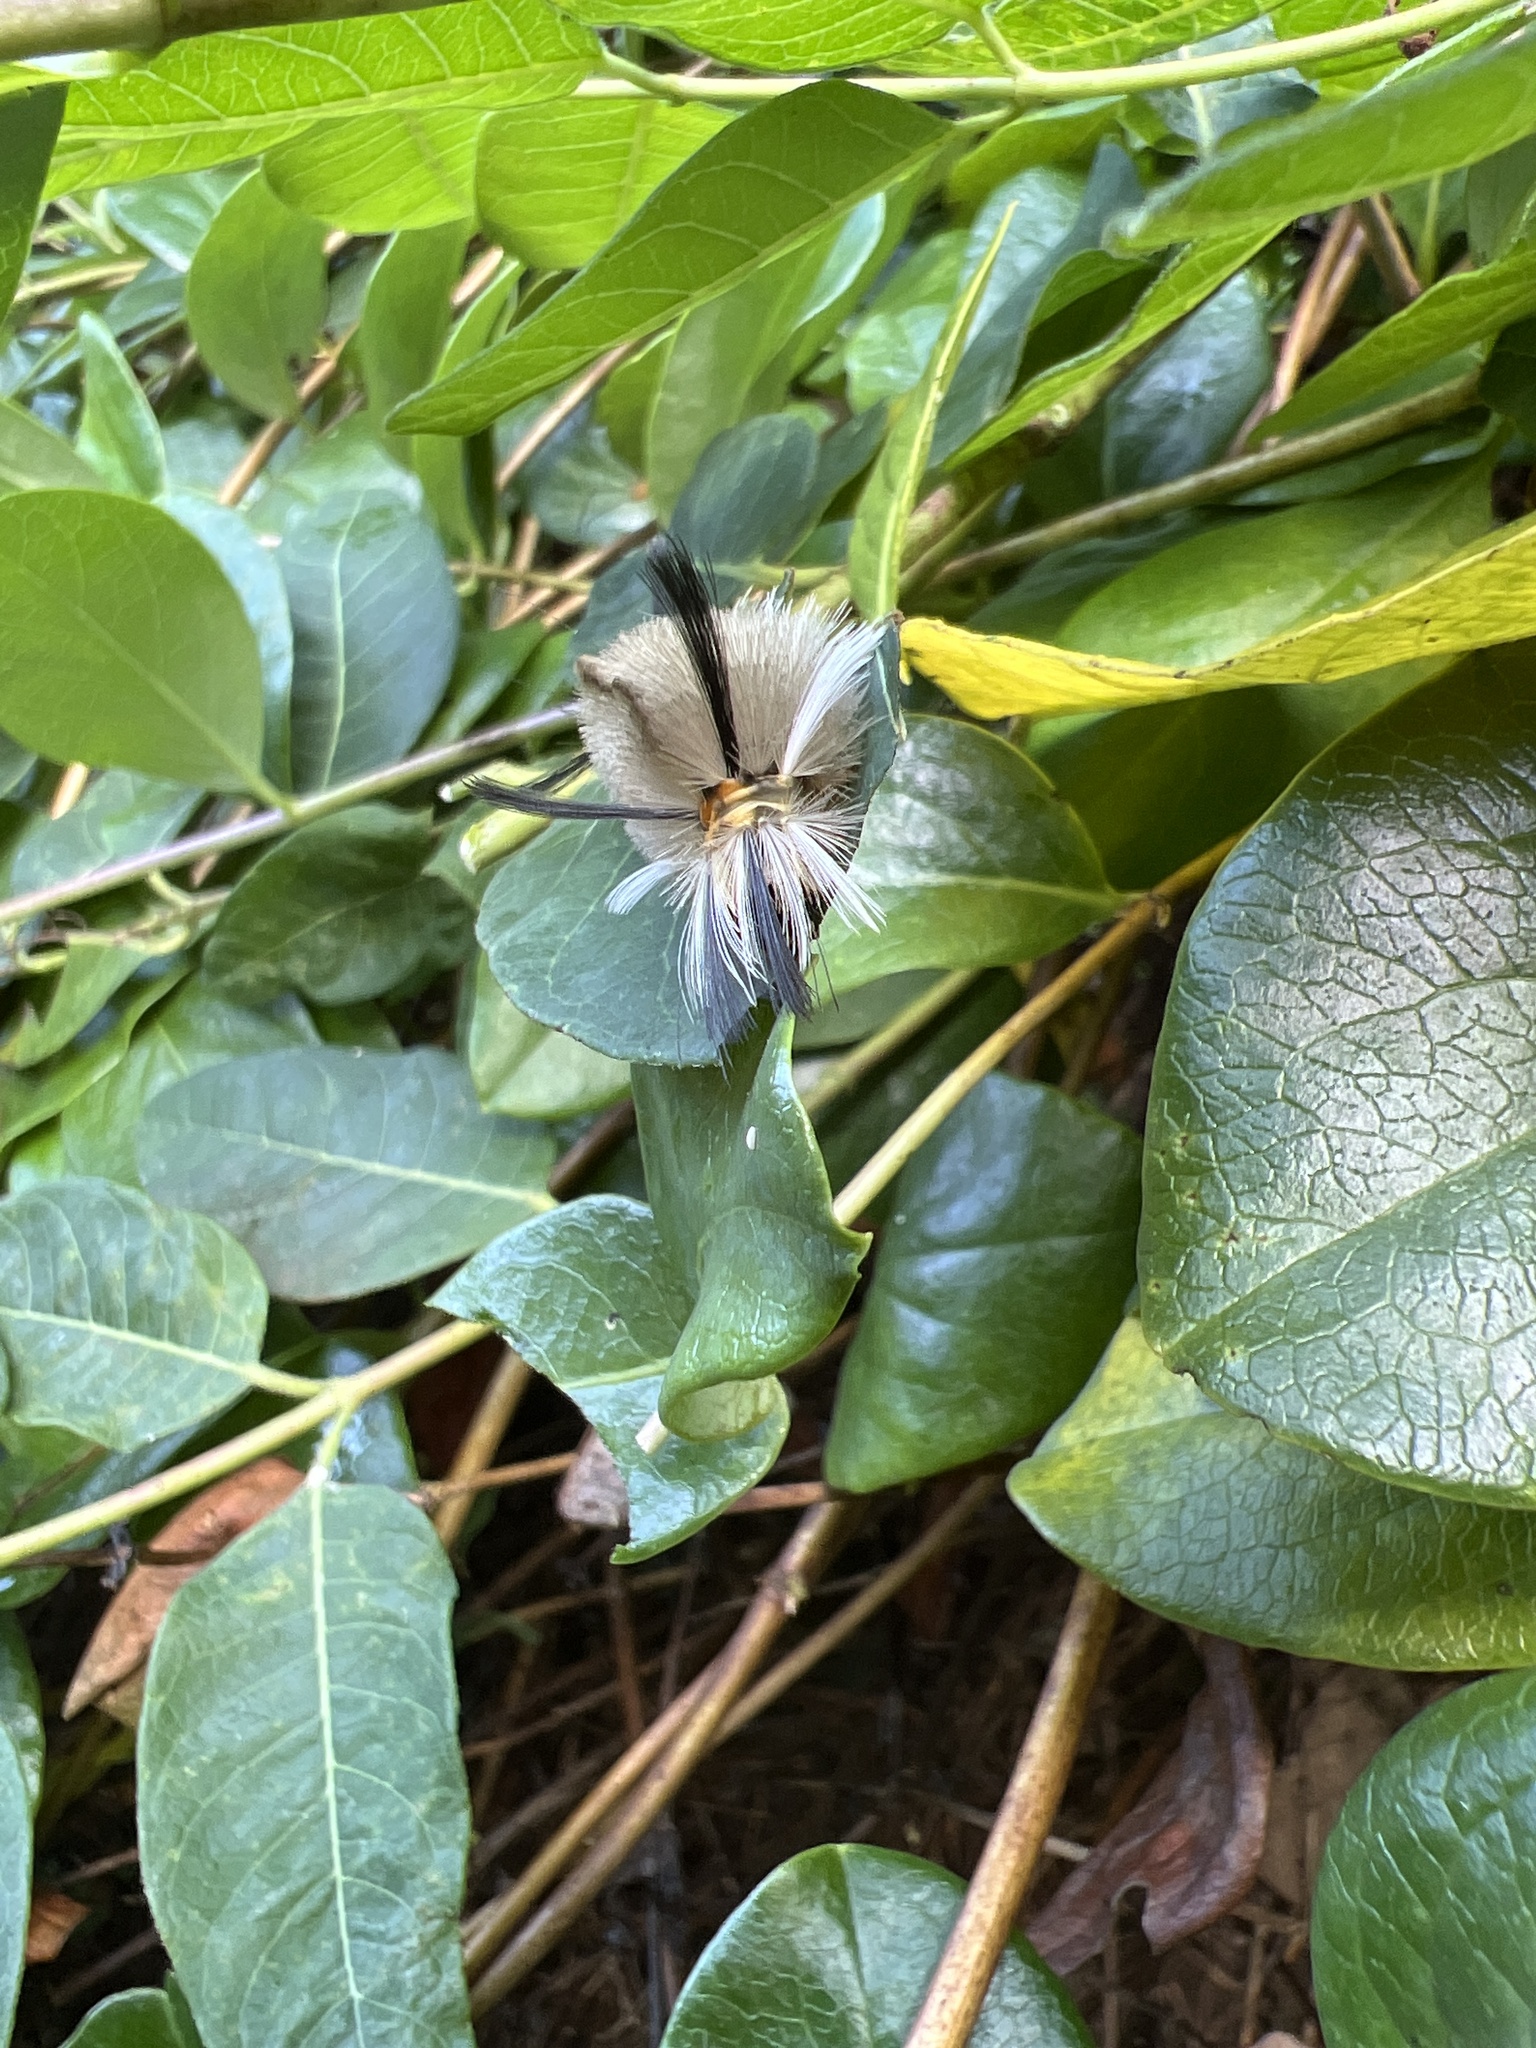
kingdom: Animalia
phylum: Arthropoda
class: Insecta
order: Lepidoptera
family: Erebidae
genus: Halysidota
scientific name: Halysidota tessellaris
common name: Banded tussock moth
